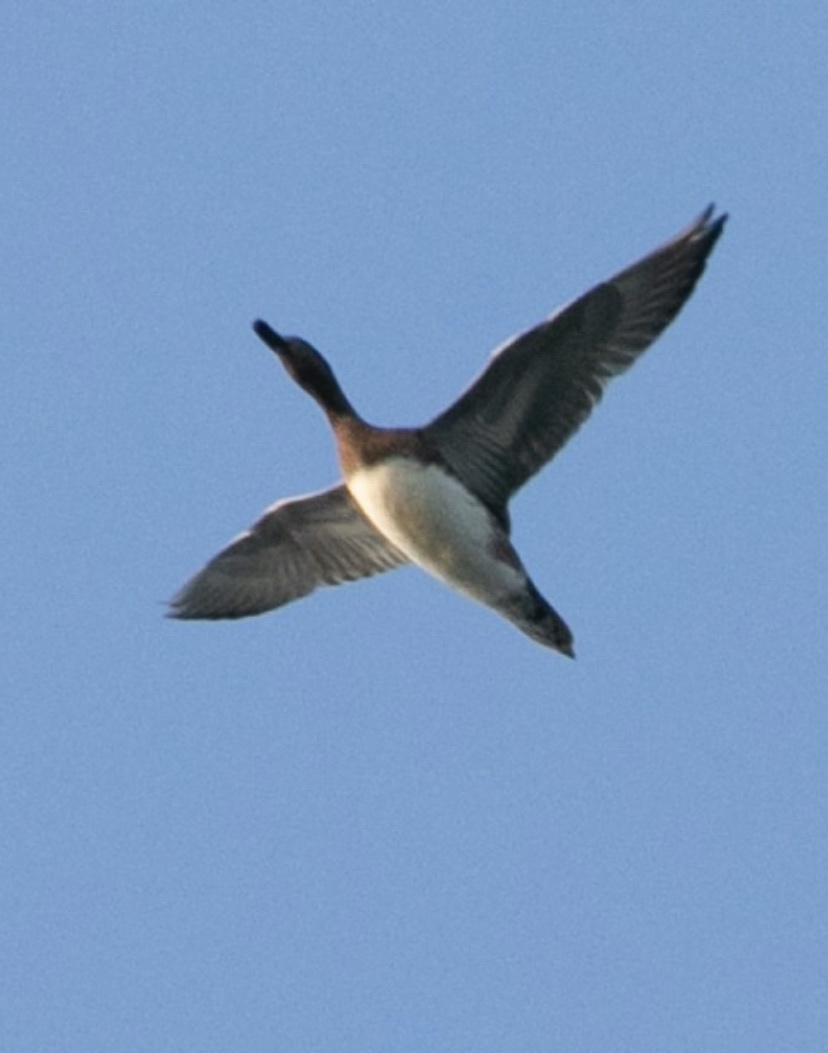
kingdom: Animalia
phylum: Chordata
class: Aves
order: Anseriformes
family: Anatidae
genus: Mareca
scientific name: Mareca penelope
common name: Eurasian wigeon
